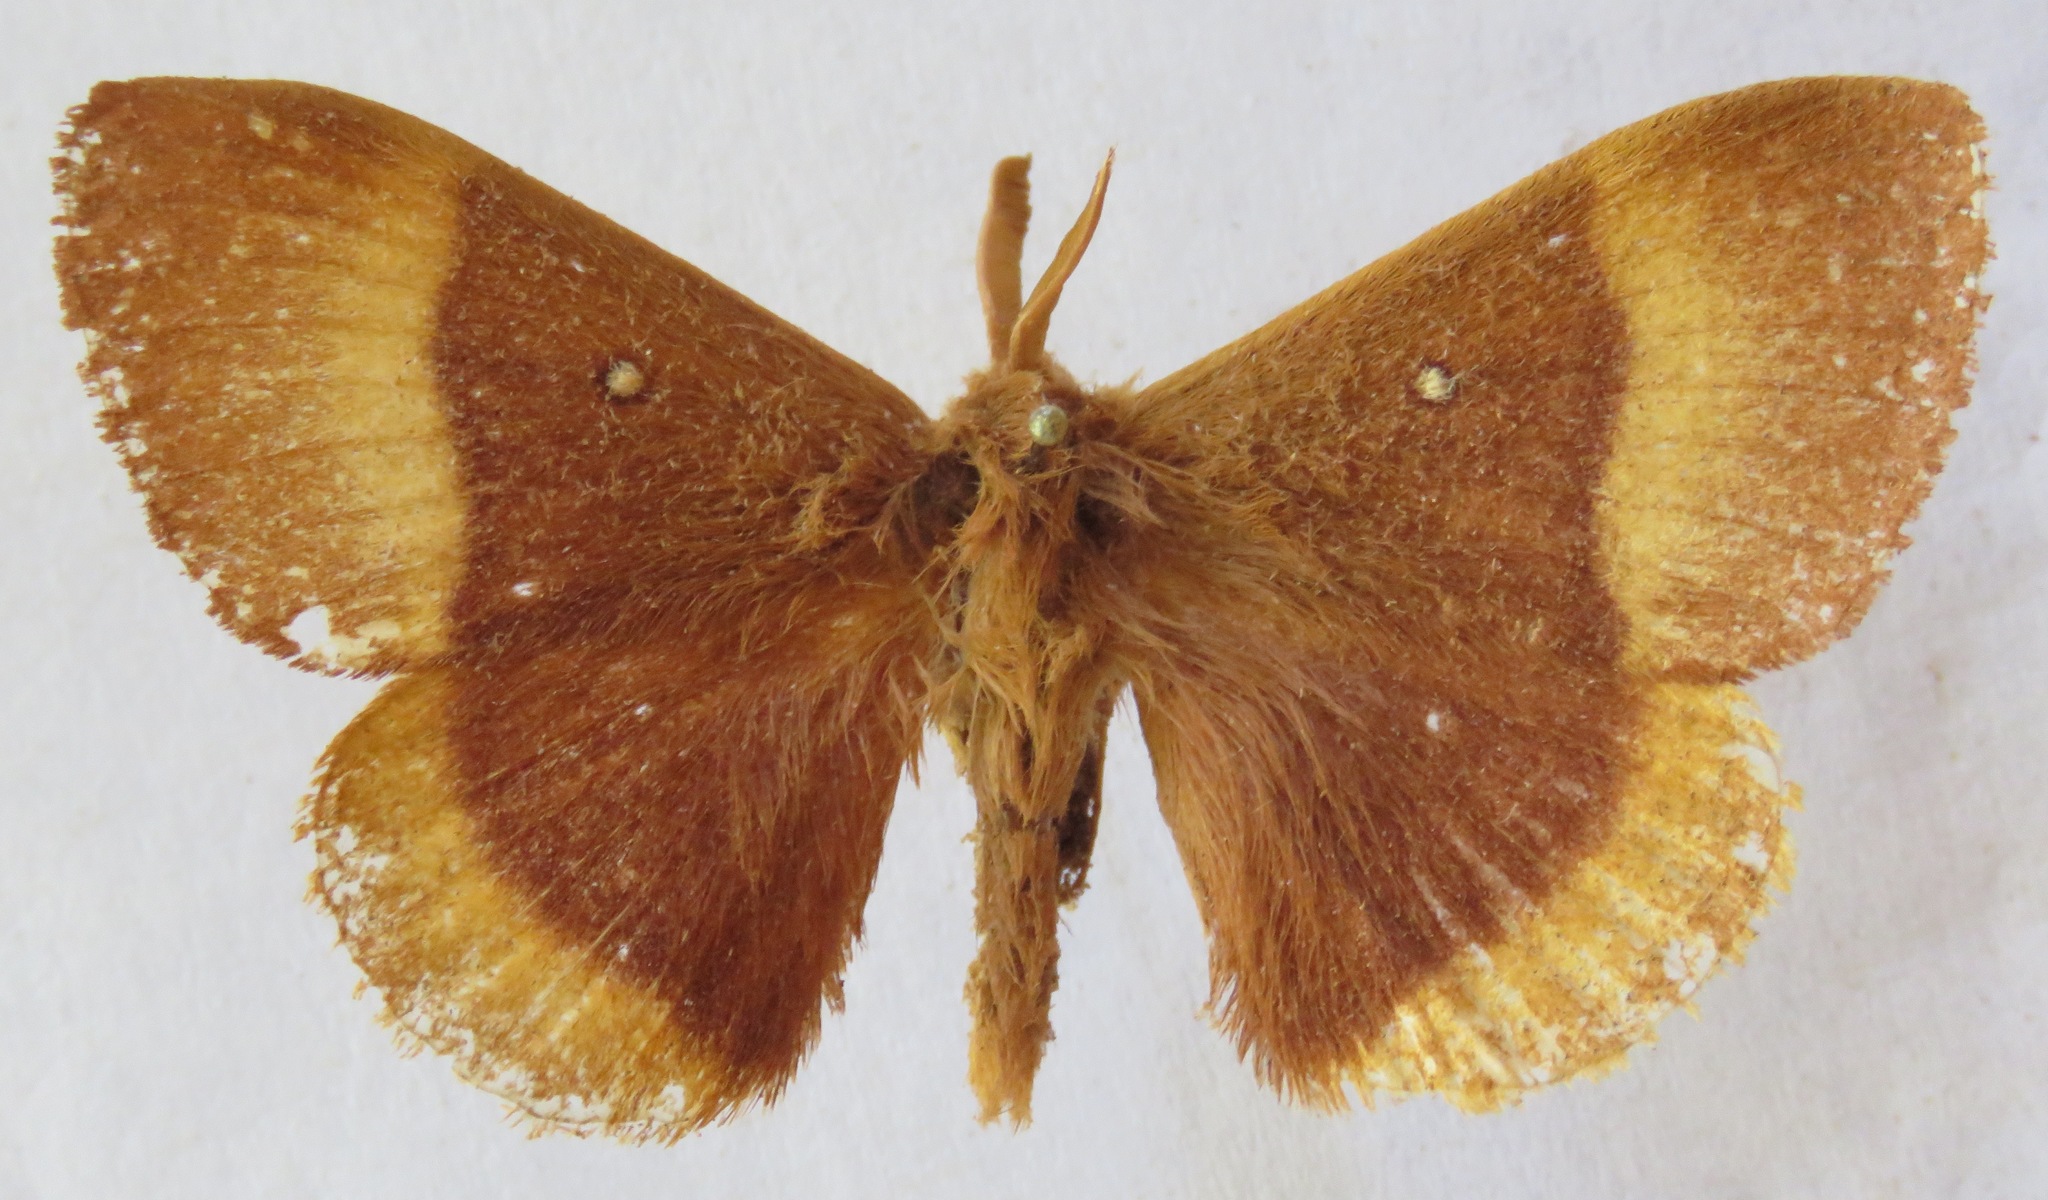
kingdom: Animalia
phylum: Arthropoda
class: Insecta
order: Lepidoptera
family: Lasiocampidae
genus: Lasiocampa
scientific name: Lasiocampa quercus
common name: Oak eggar
